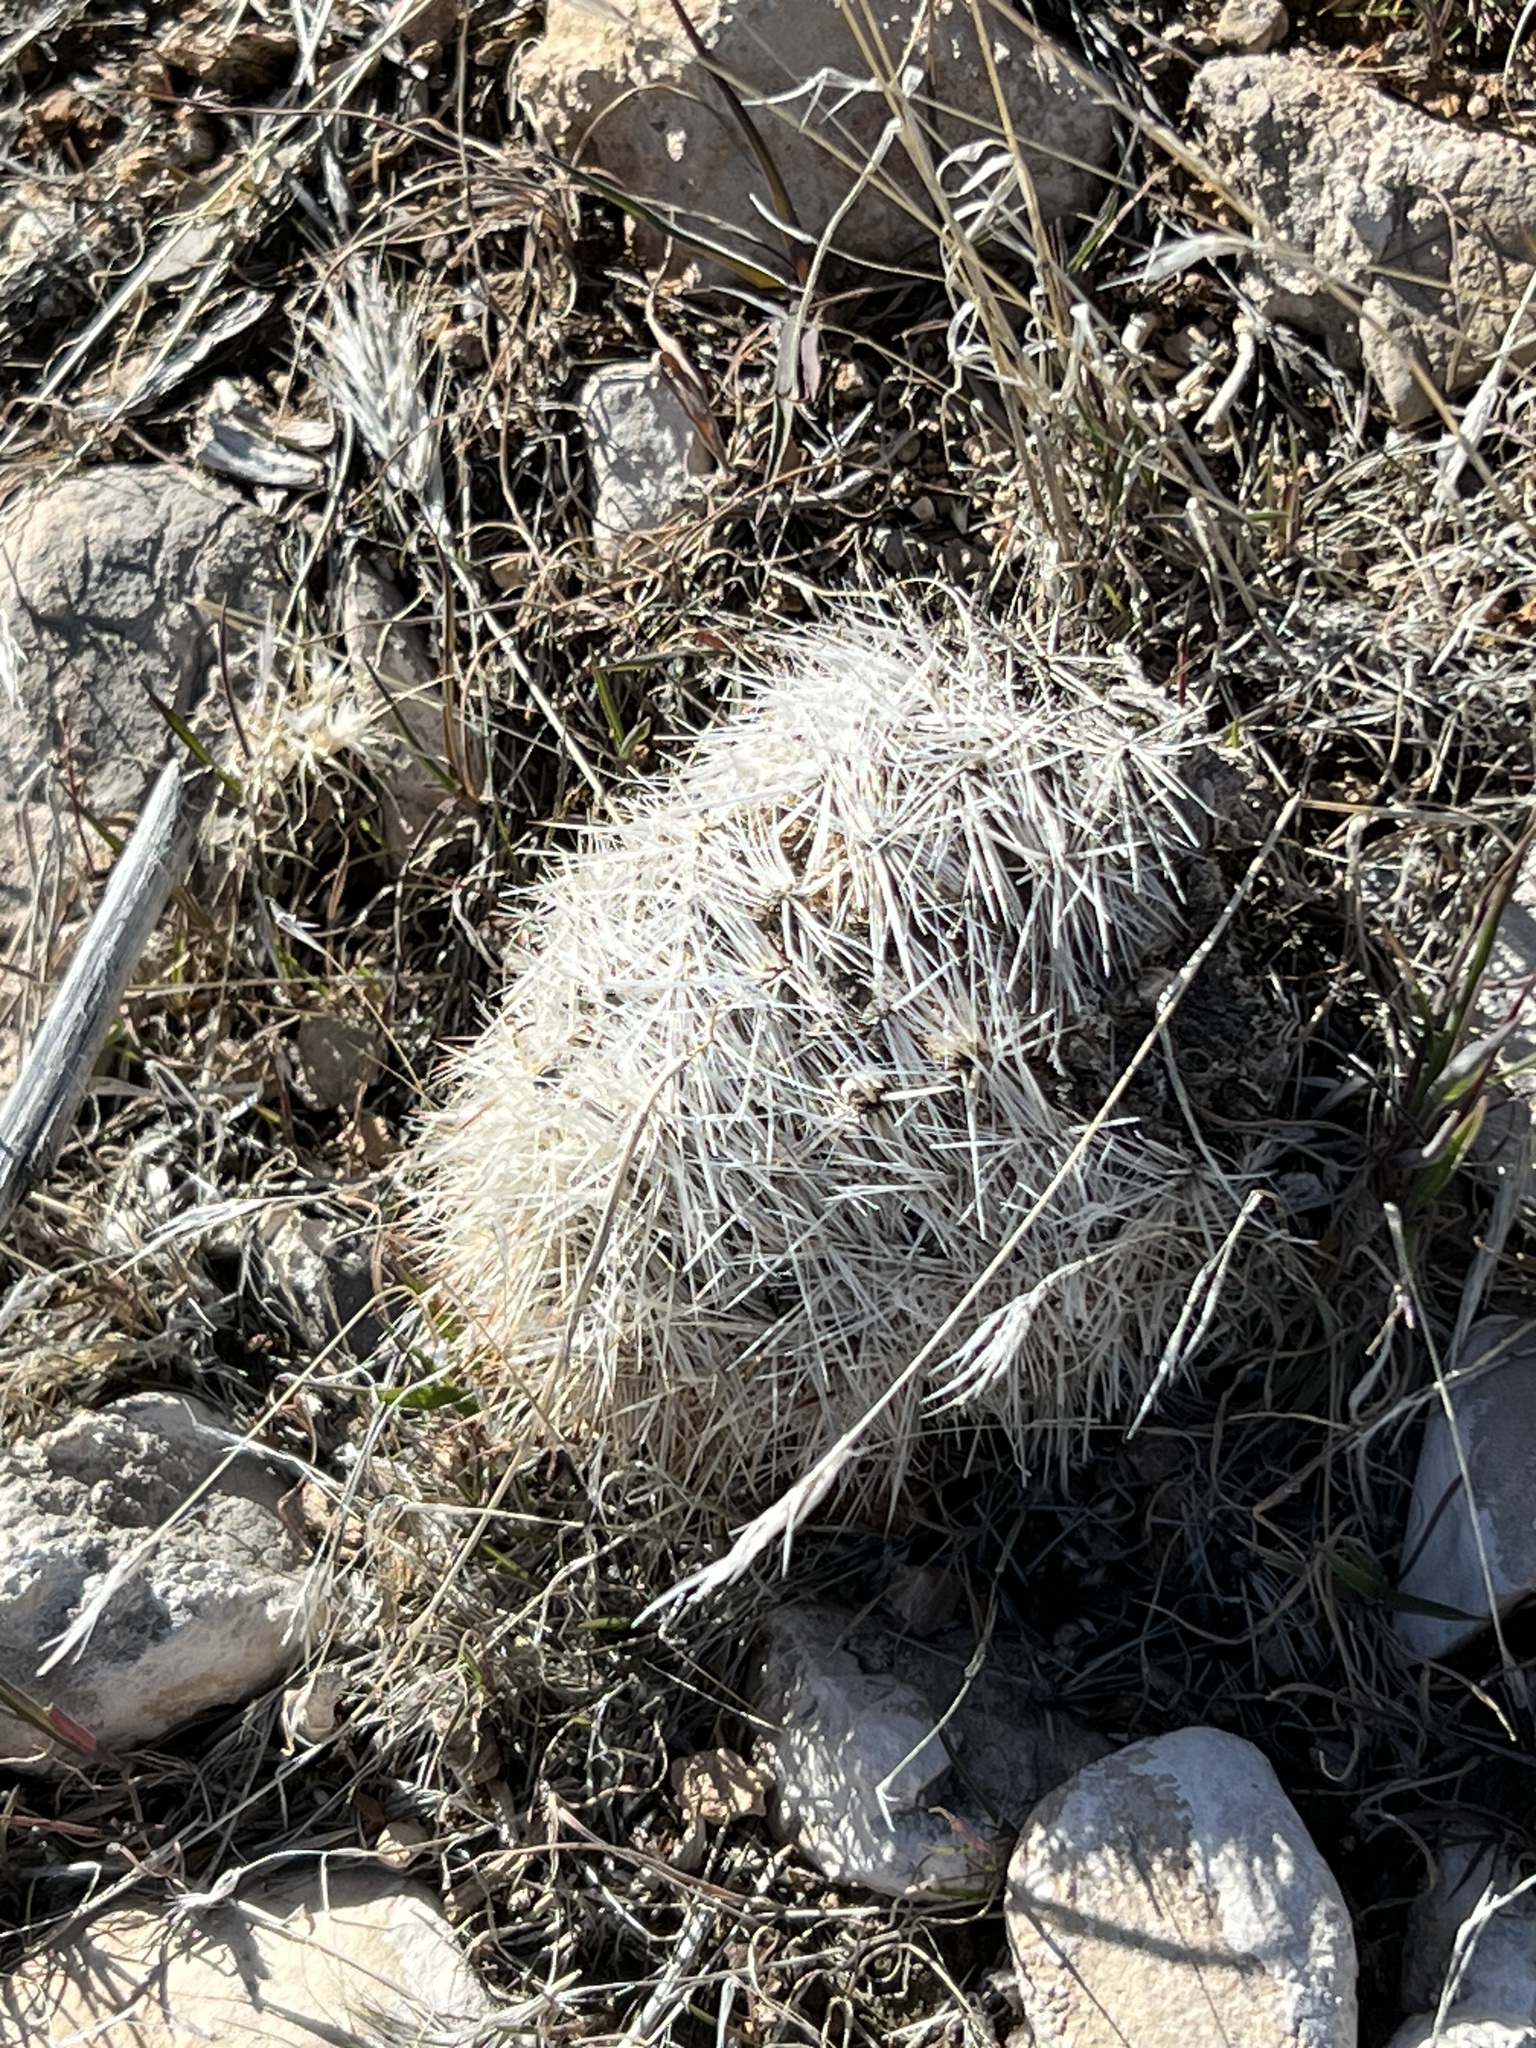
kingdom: Plantae
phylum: Tracheophyta
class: Magnoliopsida
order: Caryophyllales
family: Cactaceae
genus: Pelecyphora
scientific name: Pelecyphora dasyacantha
